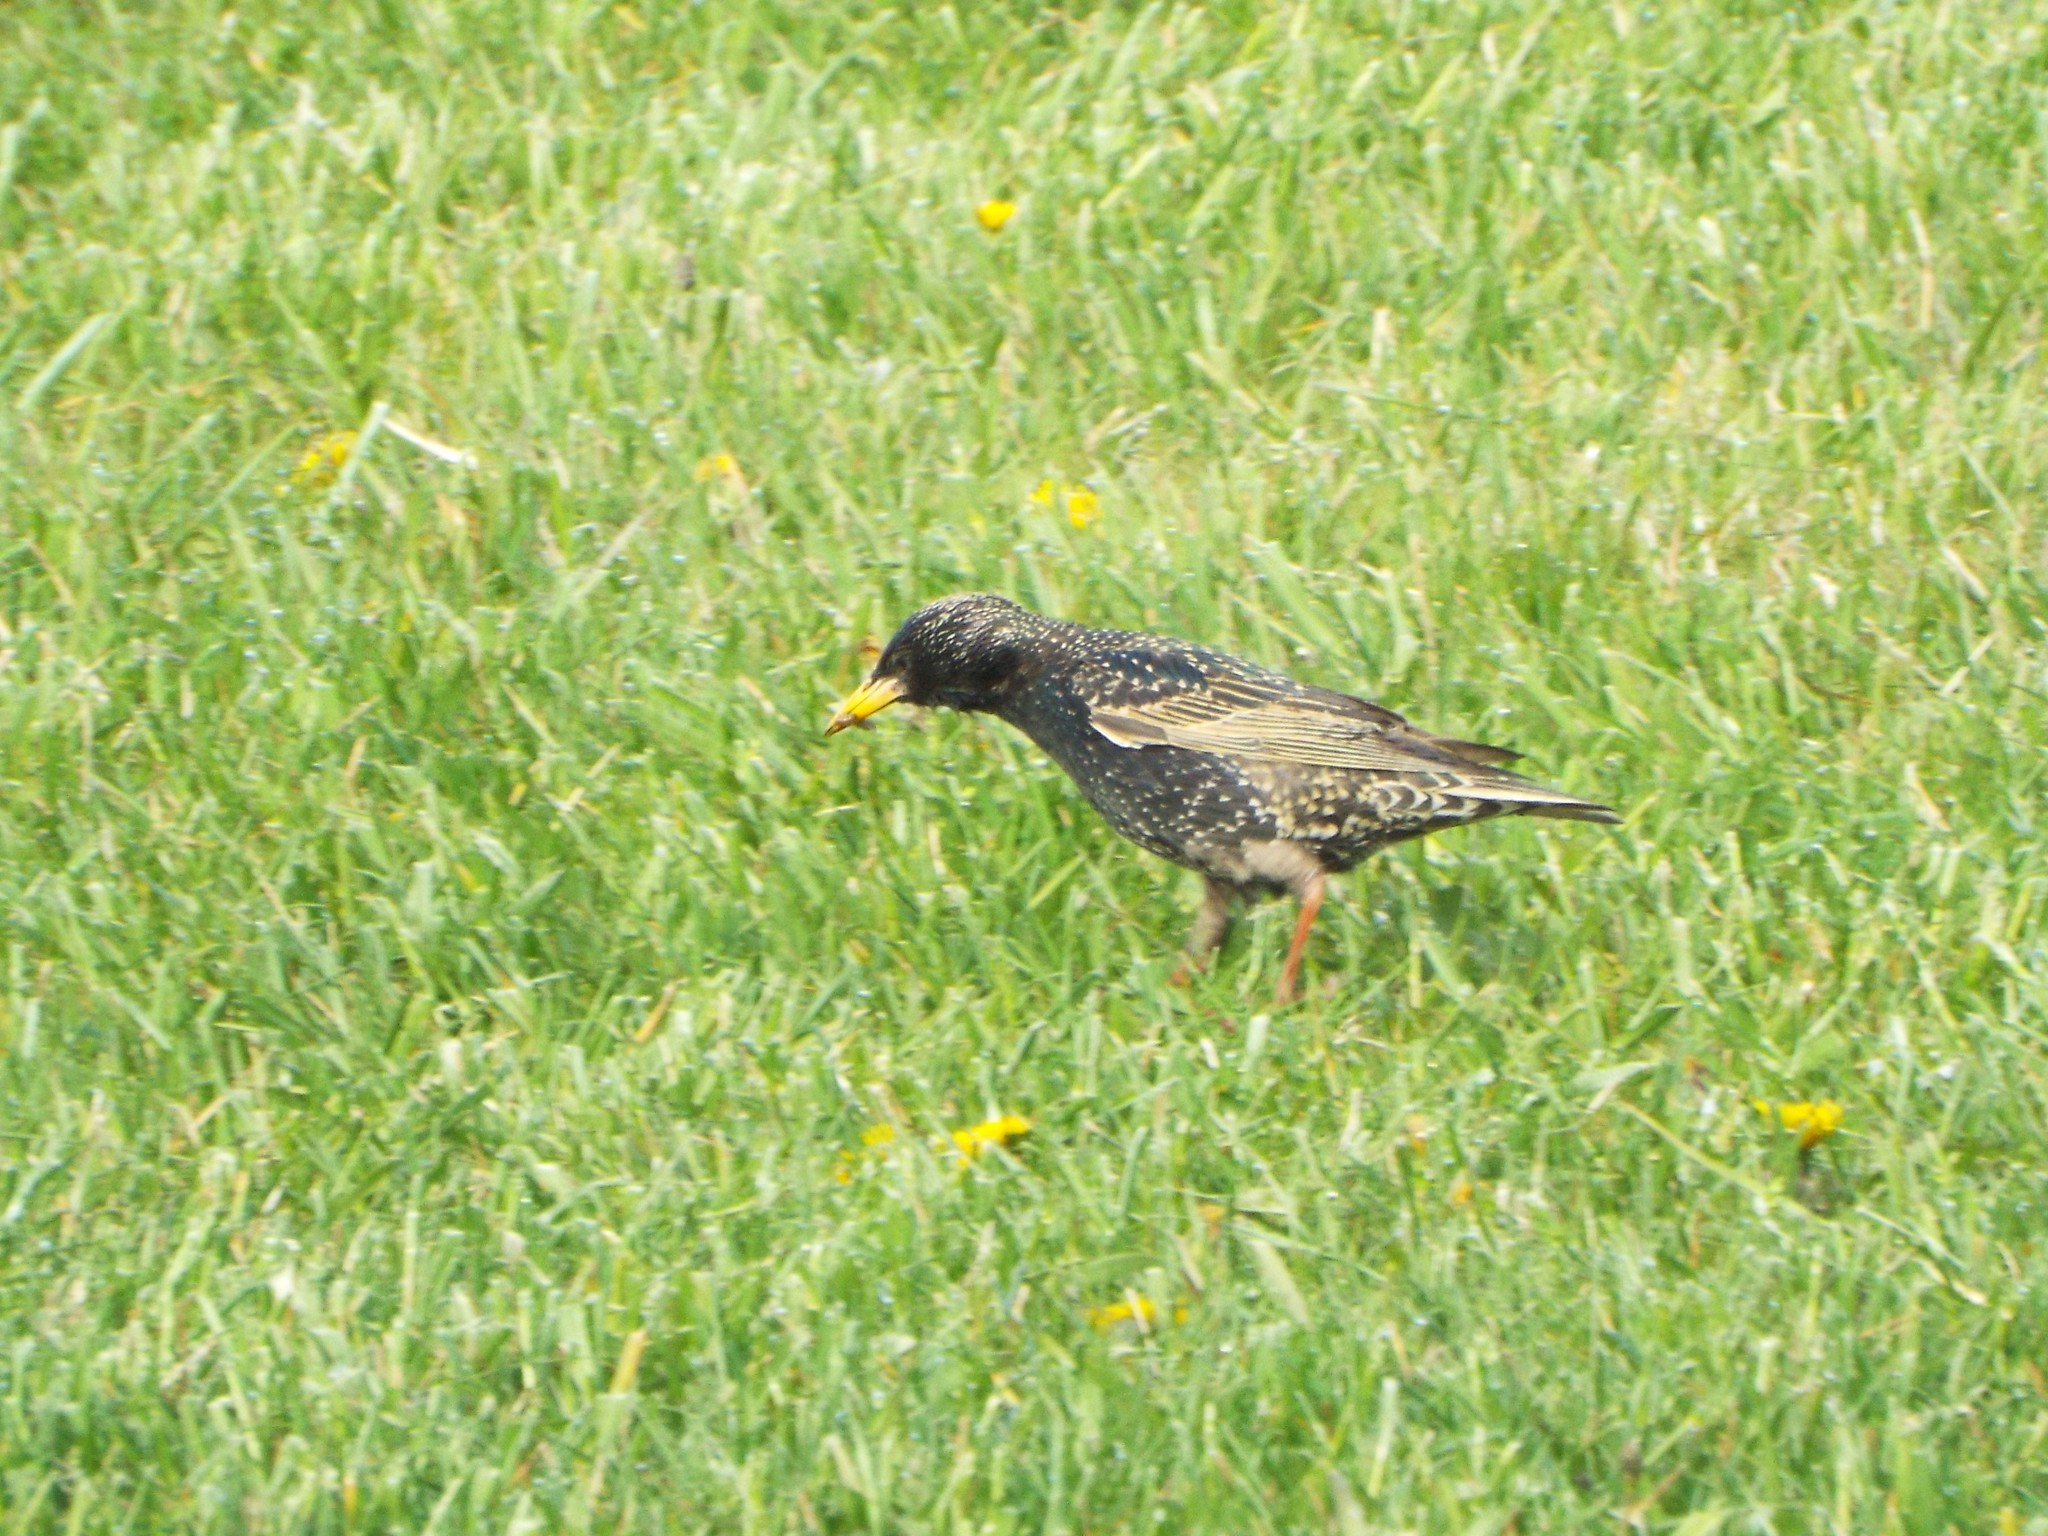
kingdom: Animalia
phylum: Chordata
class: Aves
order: Passeriformes
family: Sturnidae
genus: Sturnus
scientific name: Sturnus vulgaris
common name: Common starling
